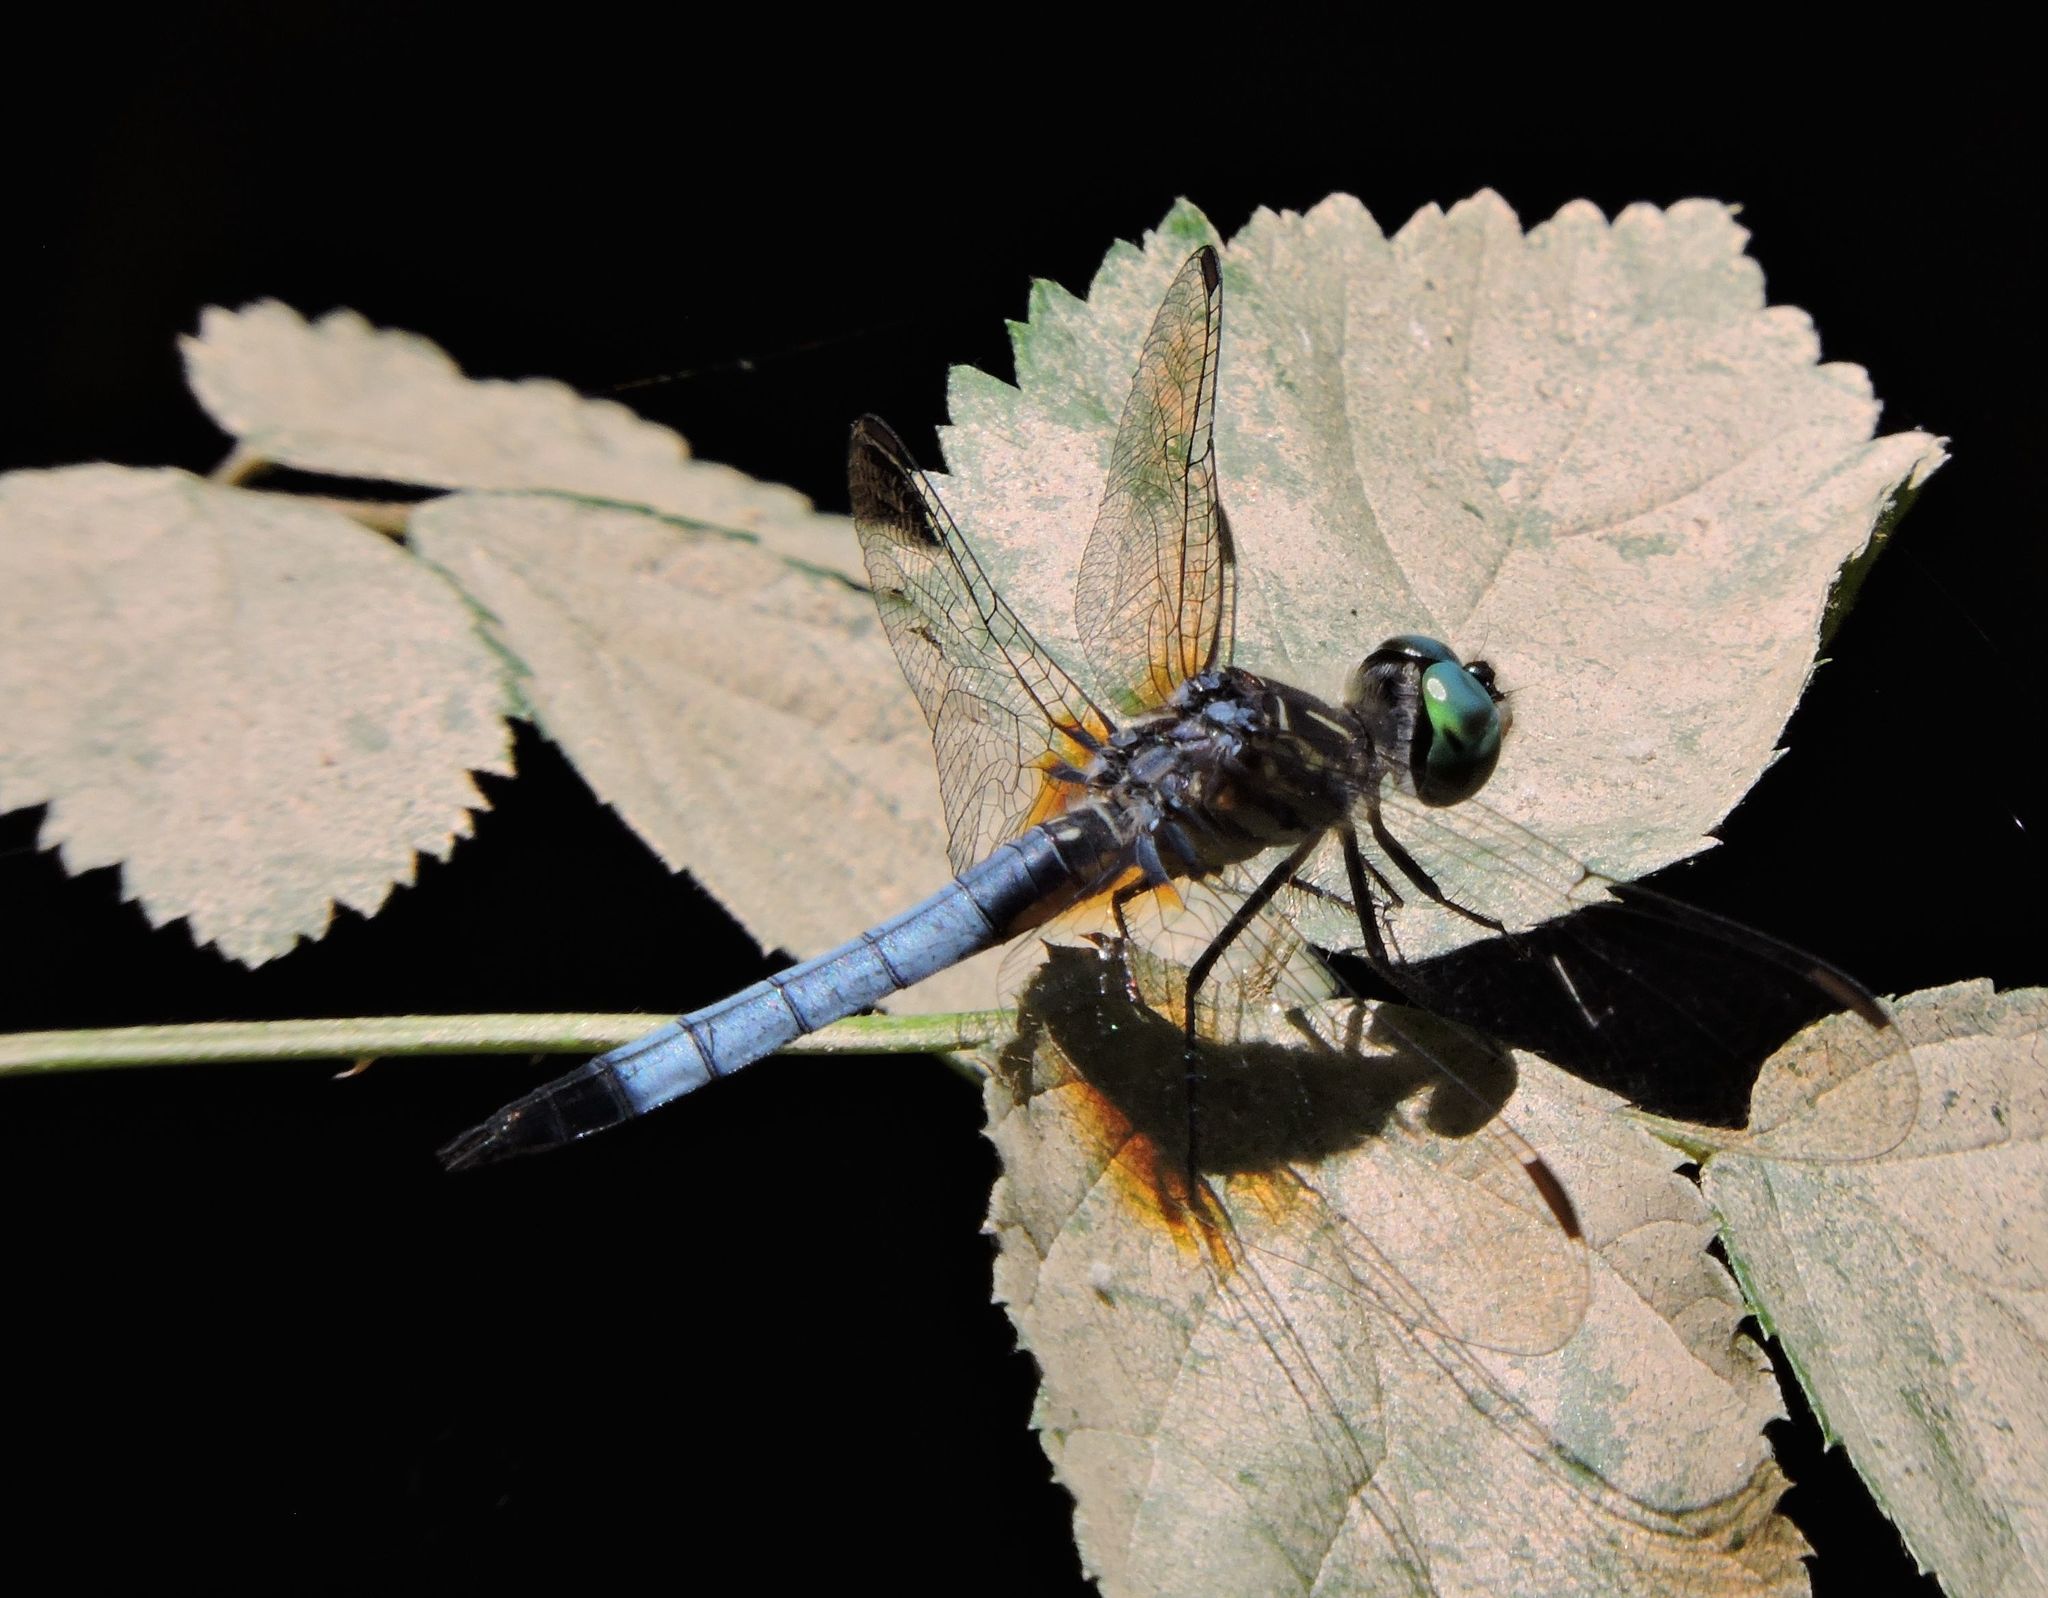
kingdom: Animalia
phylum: Arthropoda
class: Insecta
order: Odonata
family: Libellulidae
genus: Pachydiplax
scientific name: Pachydiplax longipennis
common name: Blue dasher
